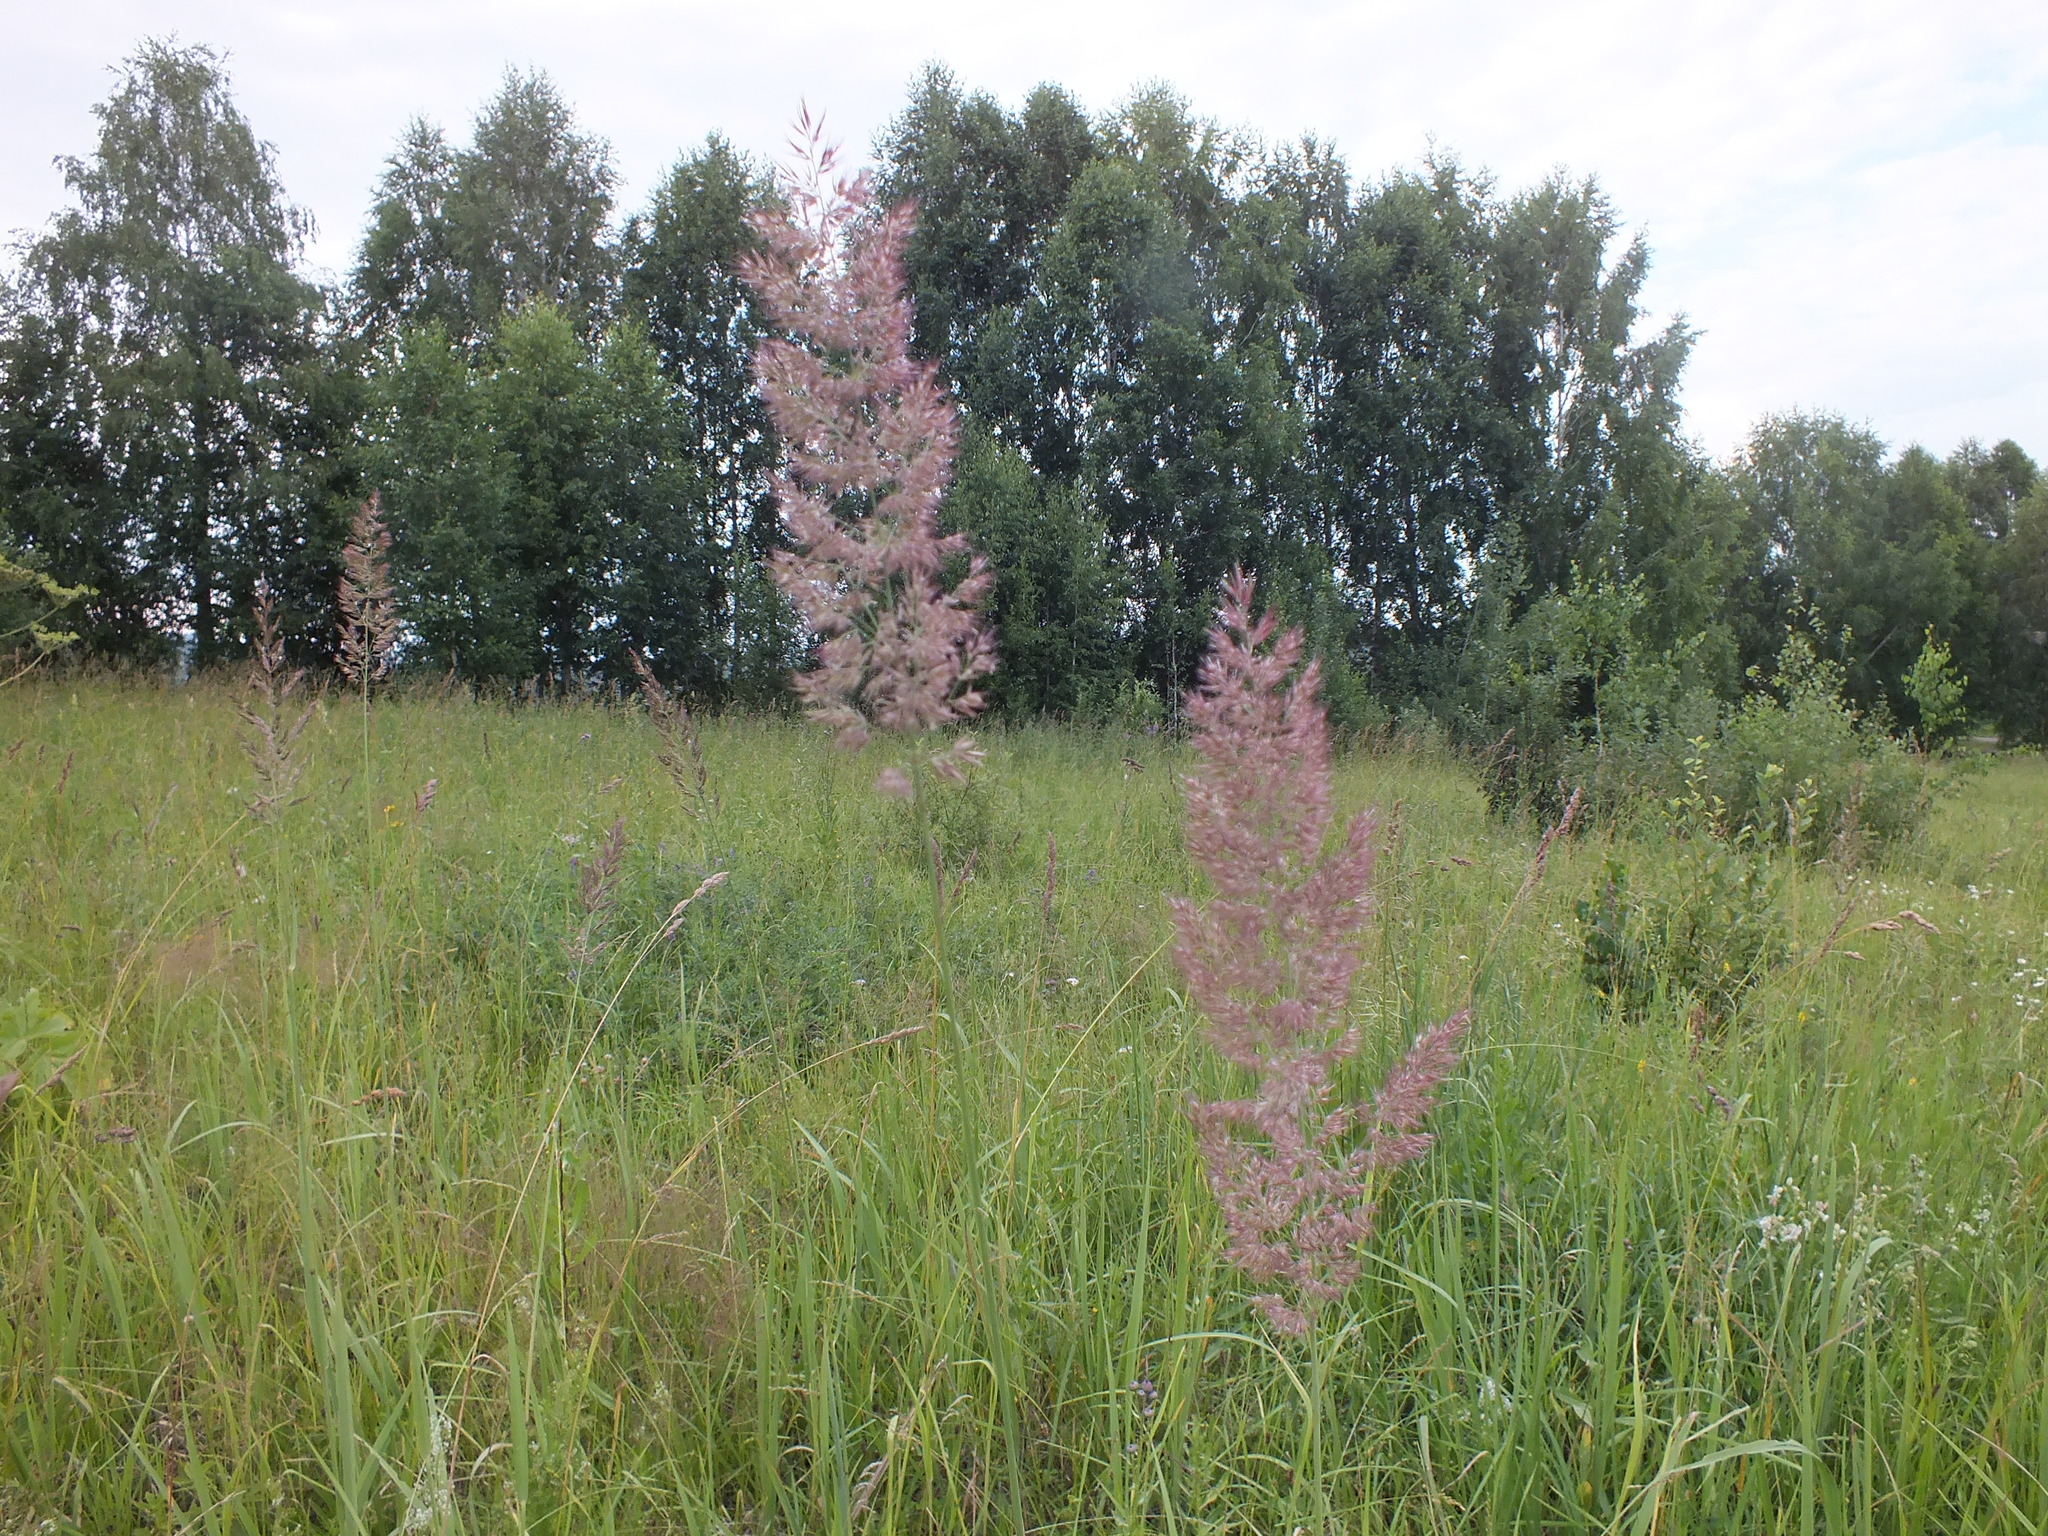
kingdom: Plantae
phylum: Tracheophyta
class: Liliopsida
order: Poales
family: Poaceae
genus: Calamagrostis
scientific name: Calamagrostis epigejos
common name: Wood small-reed
